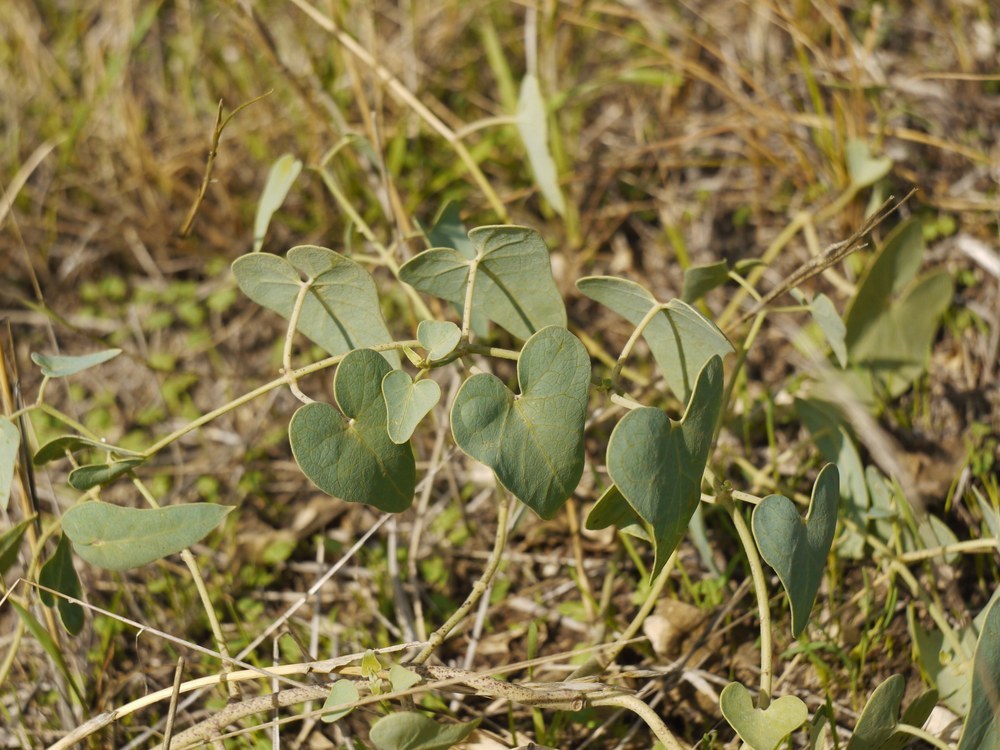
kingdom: Plantae
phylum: Tracheophyta
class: Magnoliopsida
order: Gentianales
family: Apocynaceae
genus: Cynanchum
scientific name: Cynanchum acutum
